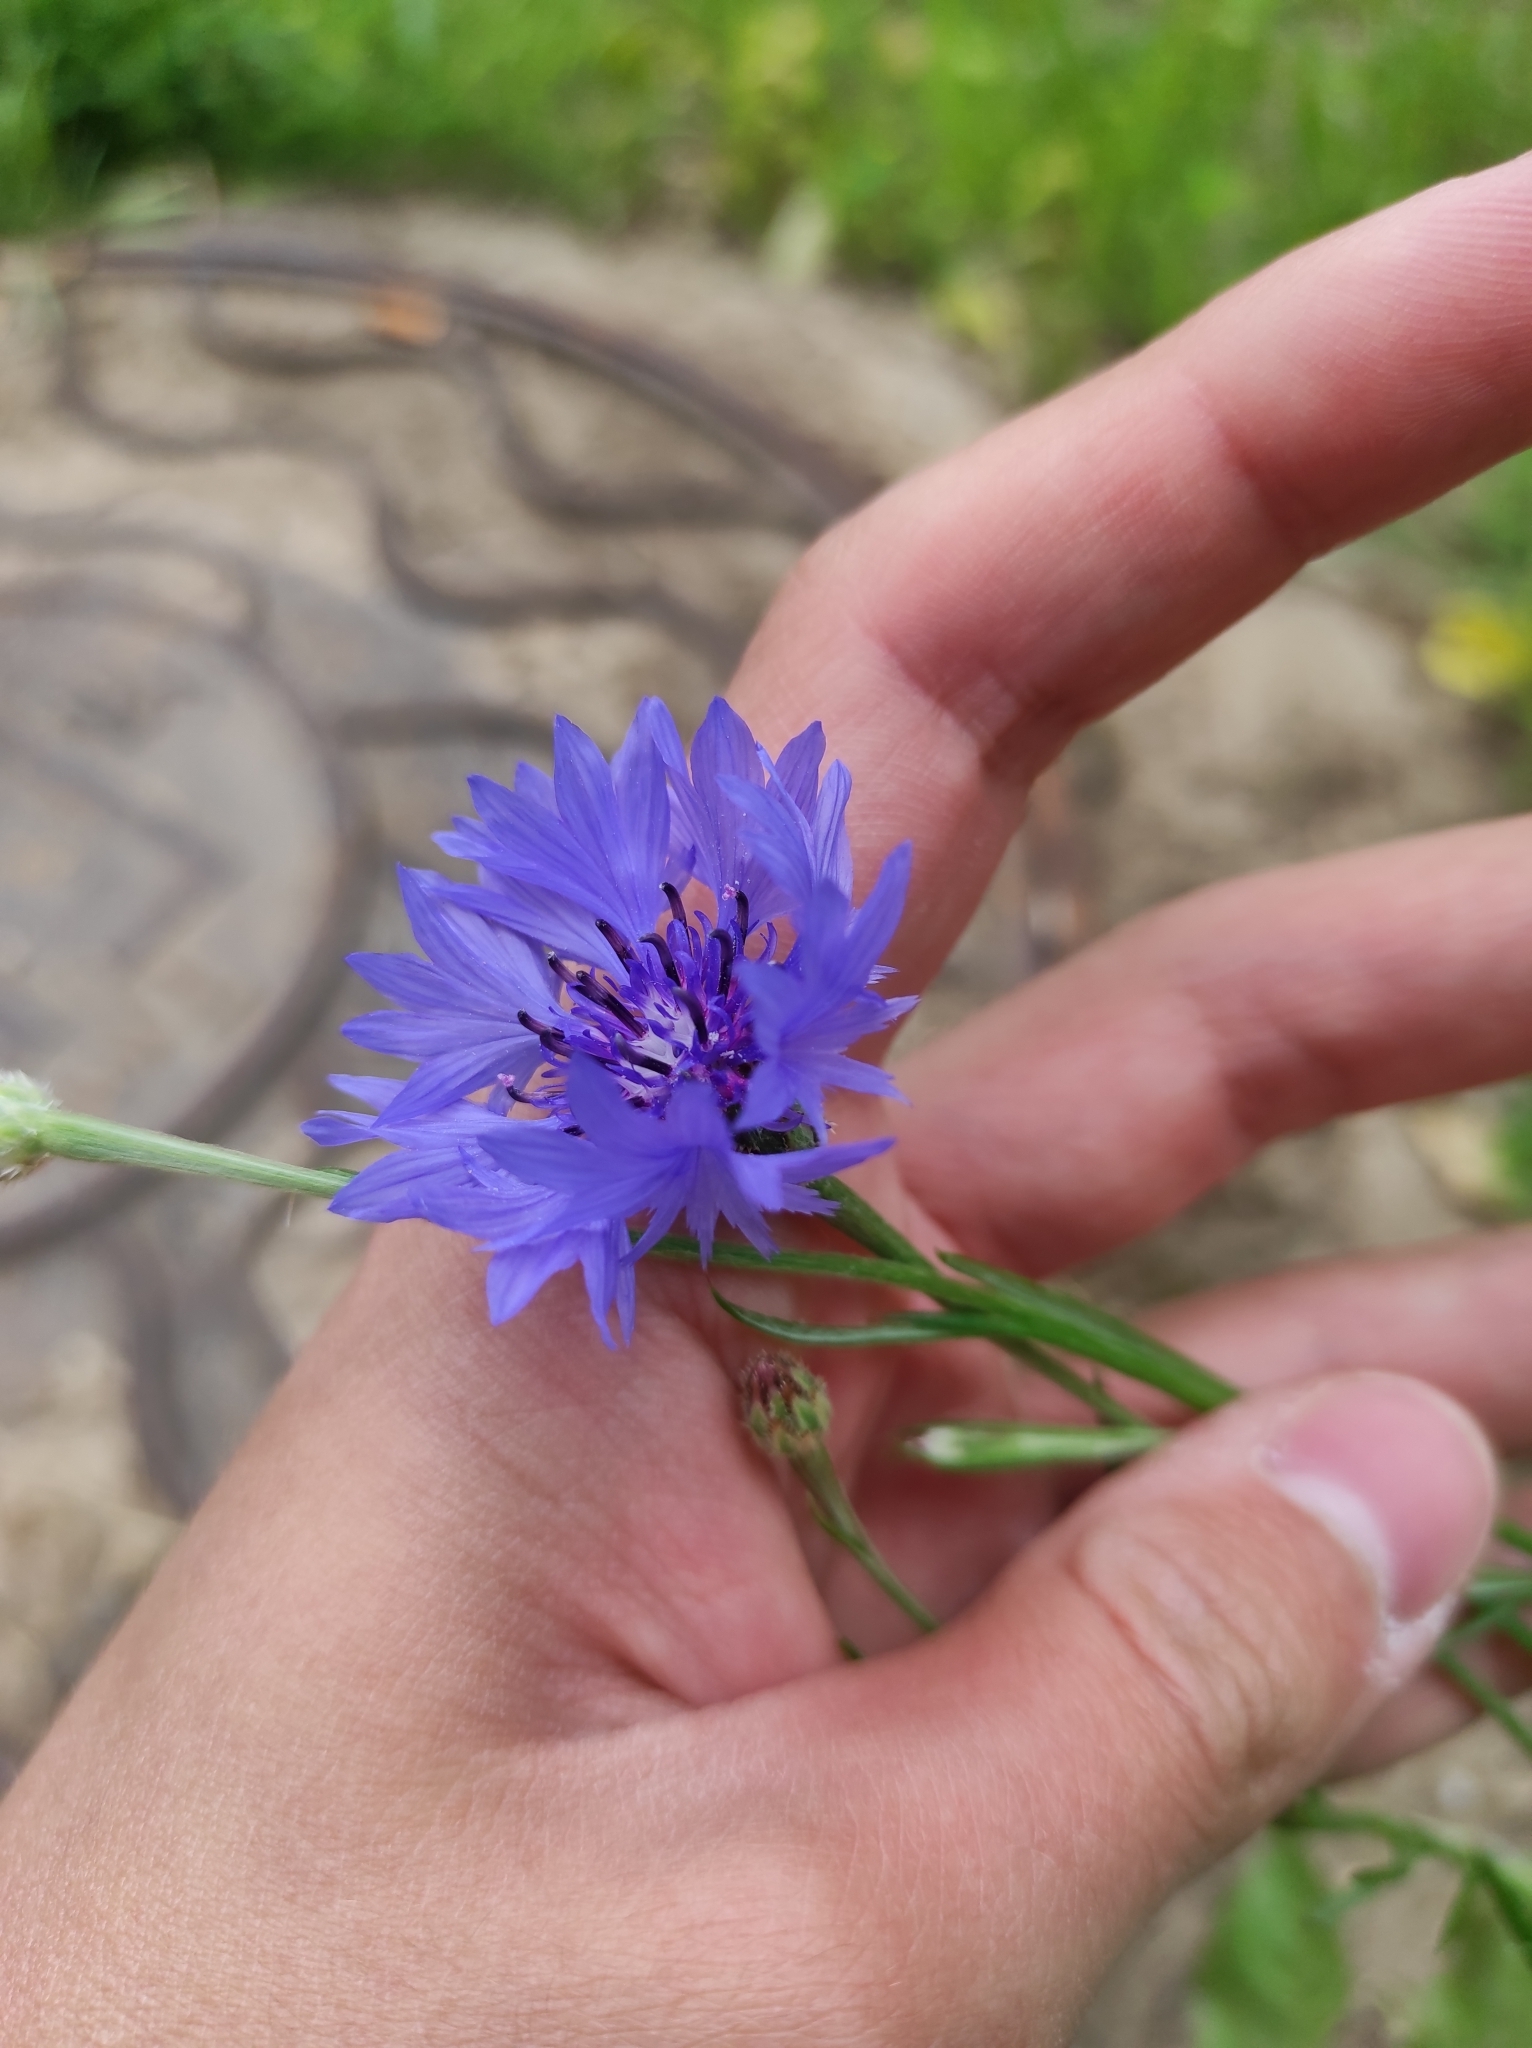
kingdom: Plantae
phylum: Tracheophyta
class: Magnoliopsida
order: Asterales
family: Asteraceae
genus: Centaurea
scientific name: Centaurea cyanus
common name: Cornflower
